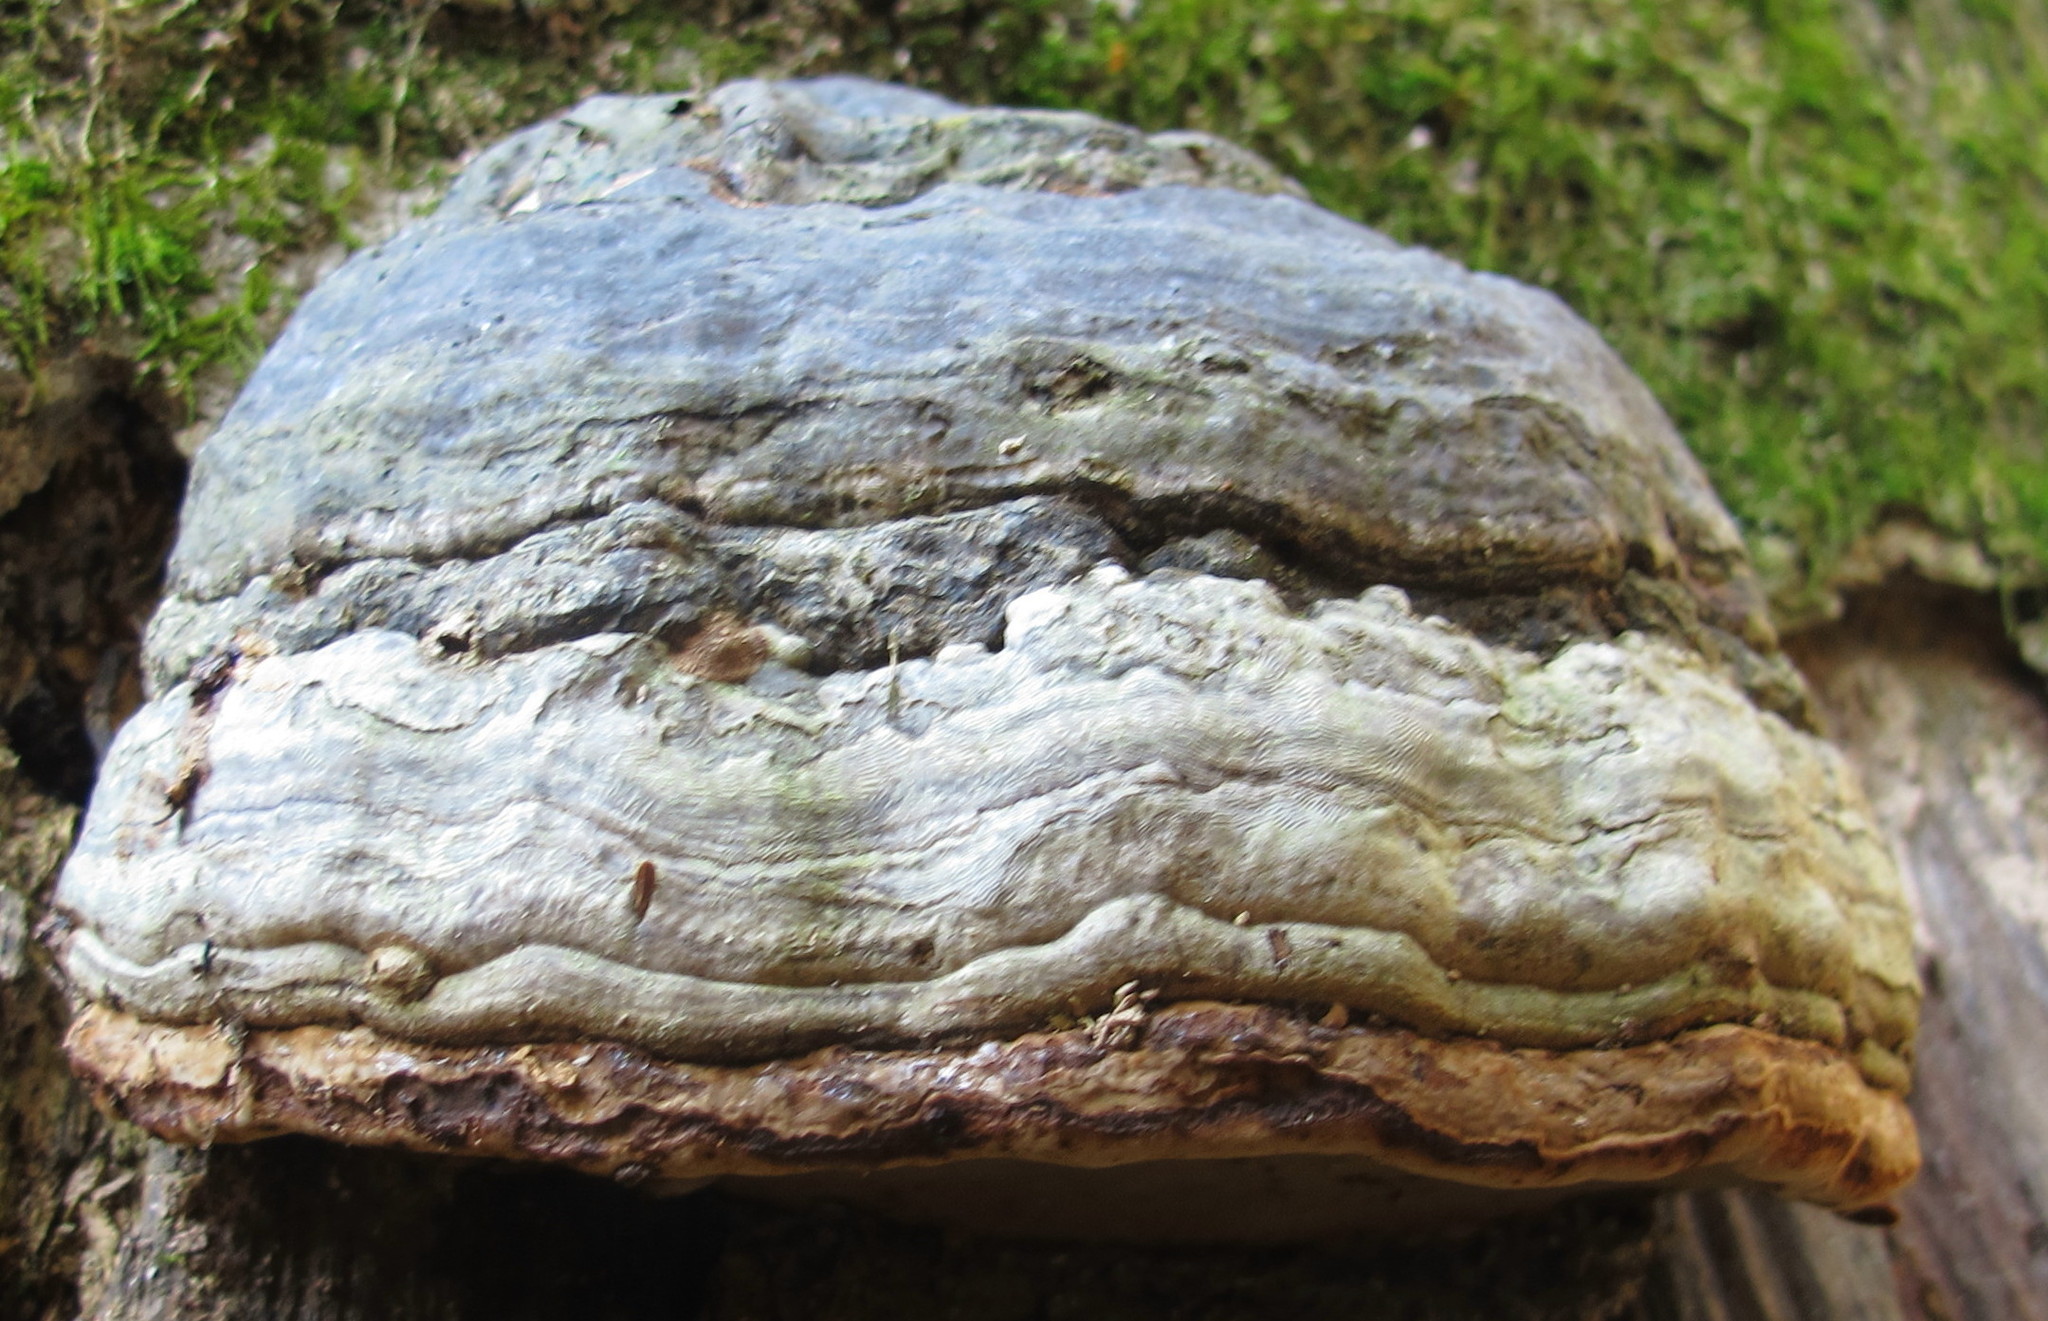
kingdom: Fungi
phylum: Basidiomycota
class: Agaricomycetes
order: Polyporales
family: Polyporaceae
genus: Fomes
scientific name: Fomes fomentarius
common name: Hoof fungus
